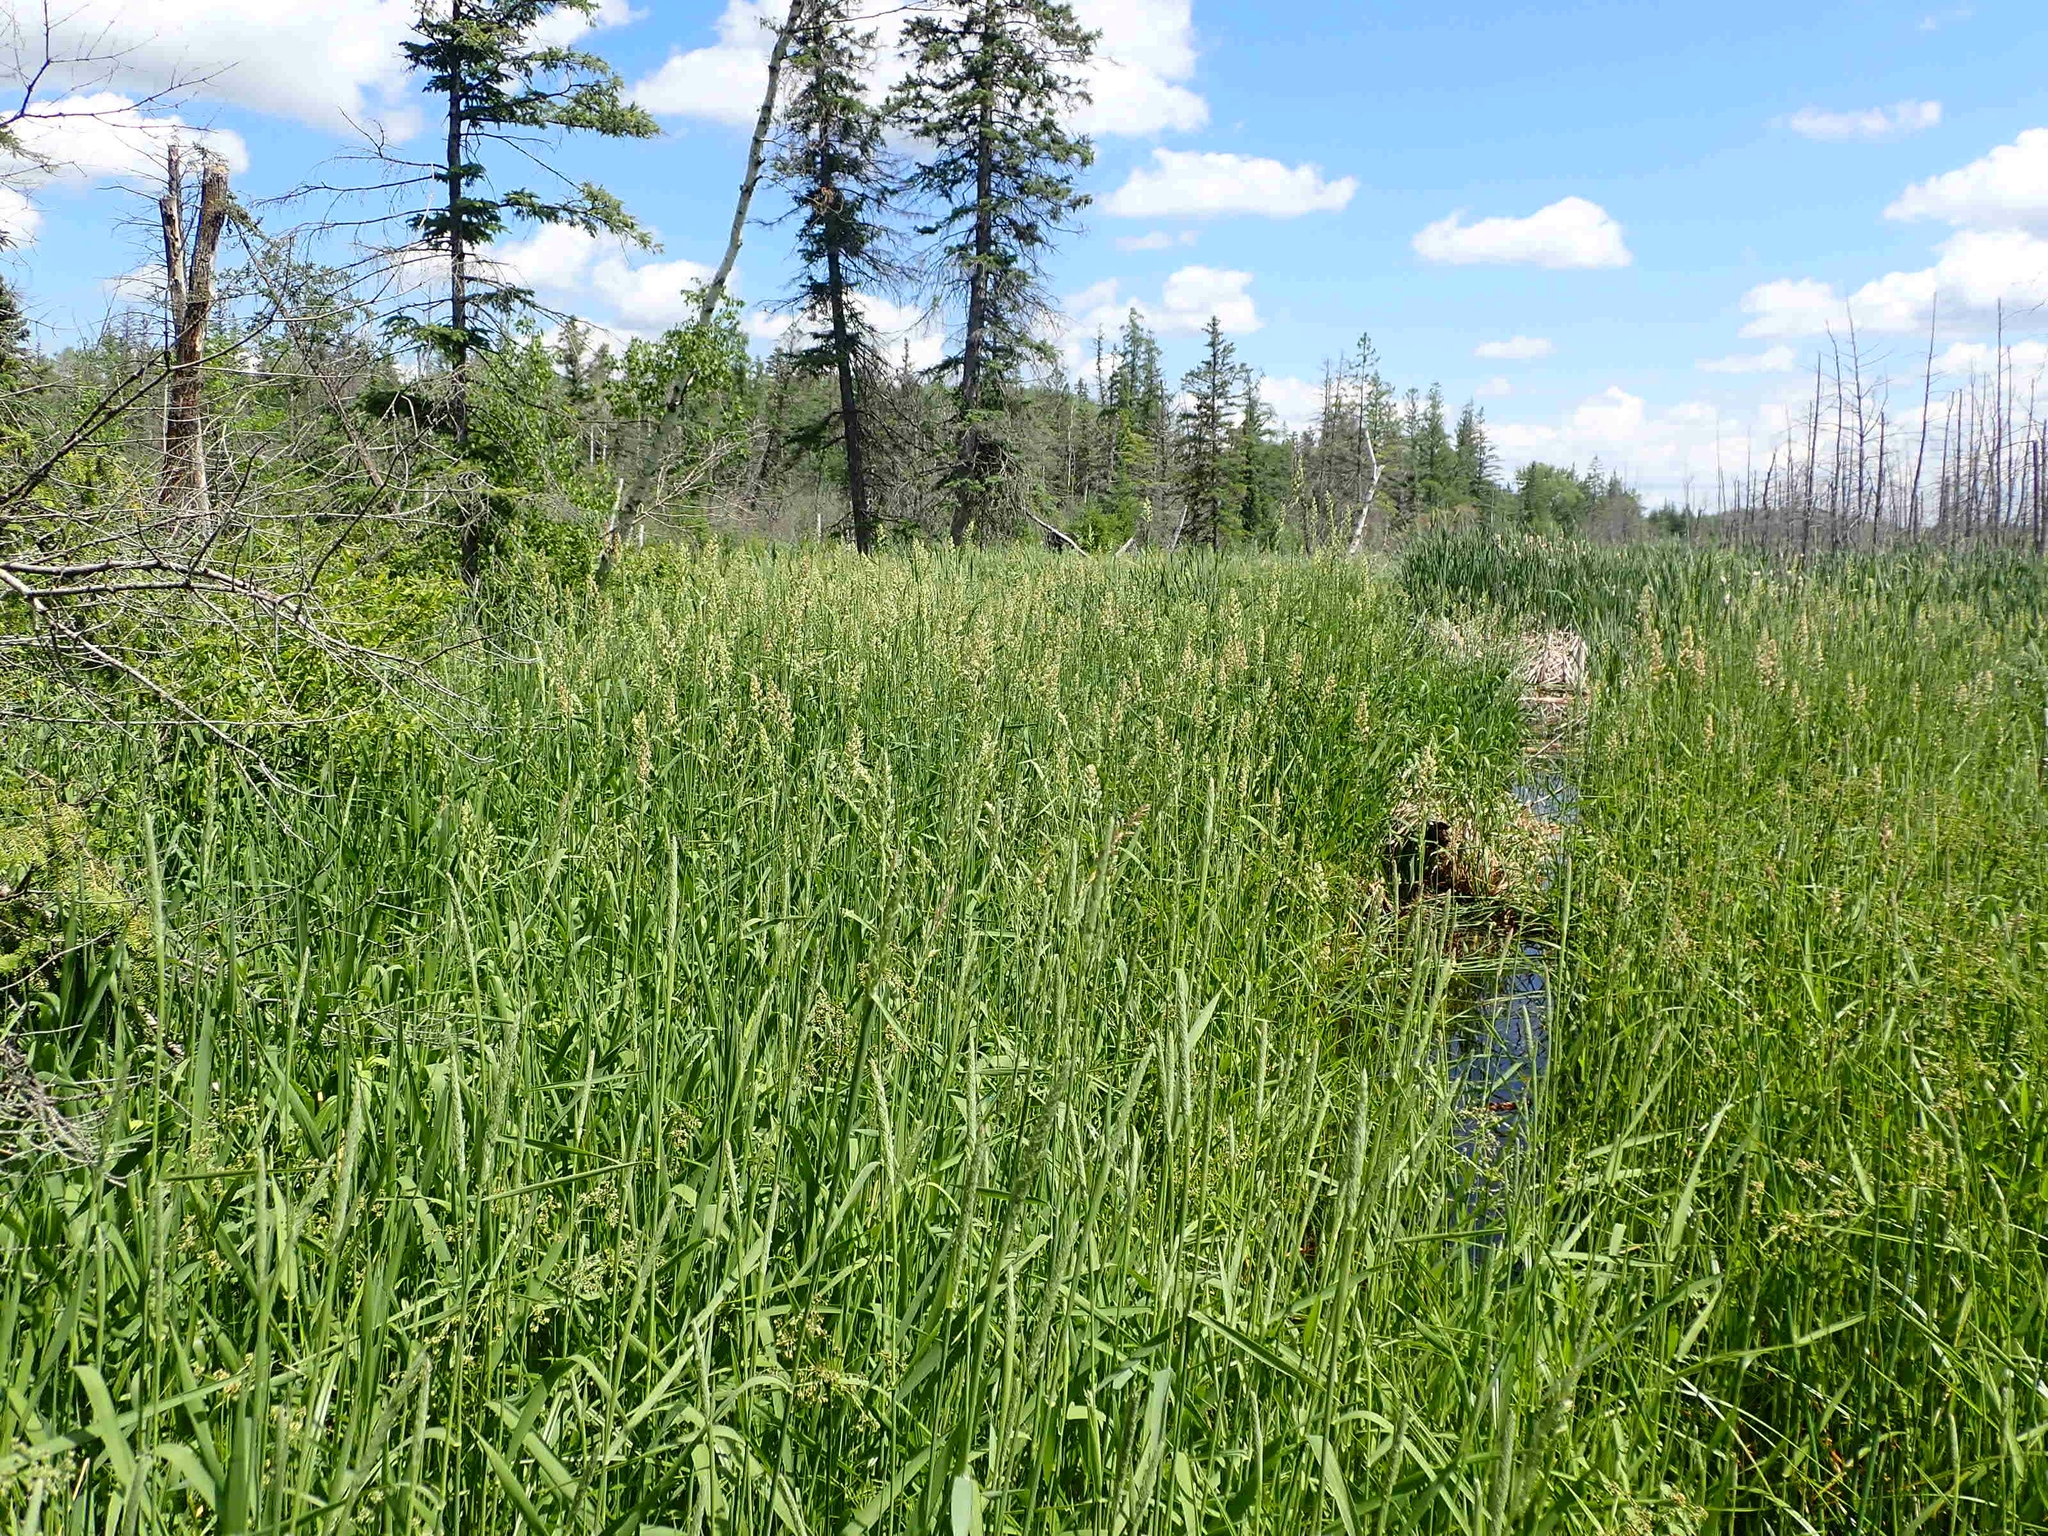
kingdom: Plantae
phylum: Tracheophyta
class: Liliopsida
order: Poales
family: Poaceae
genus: Phalaris
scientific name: Phalaris arundinacea
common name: Reed canary-grass
